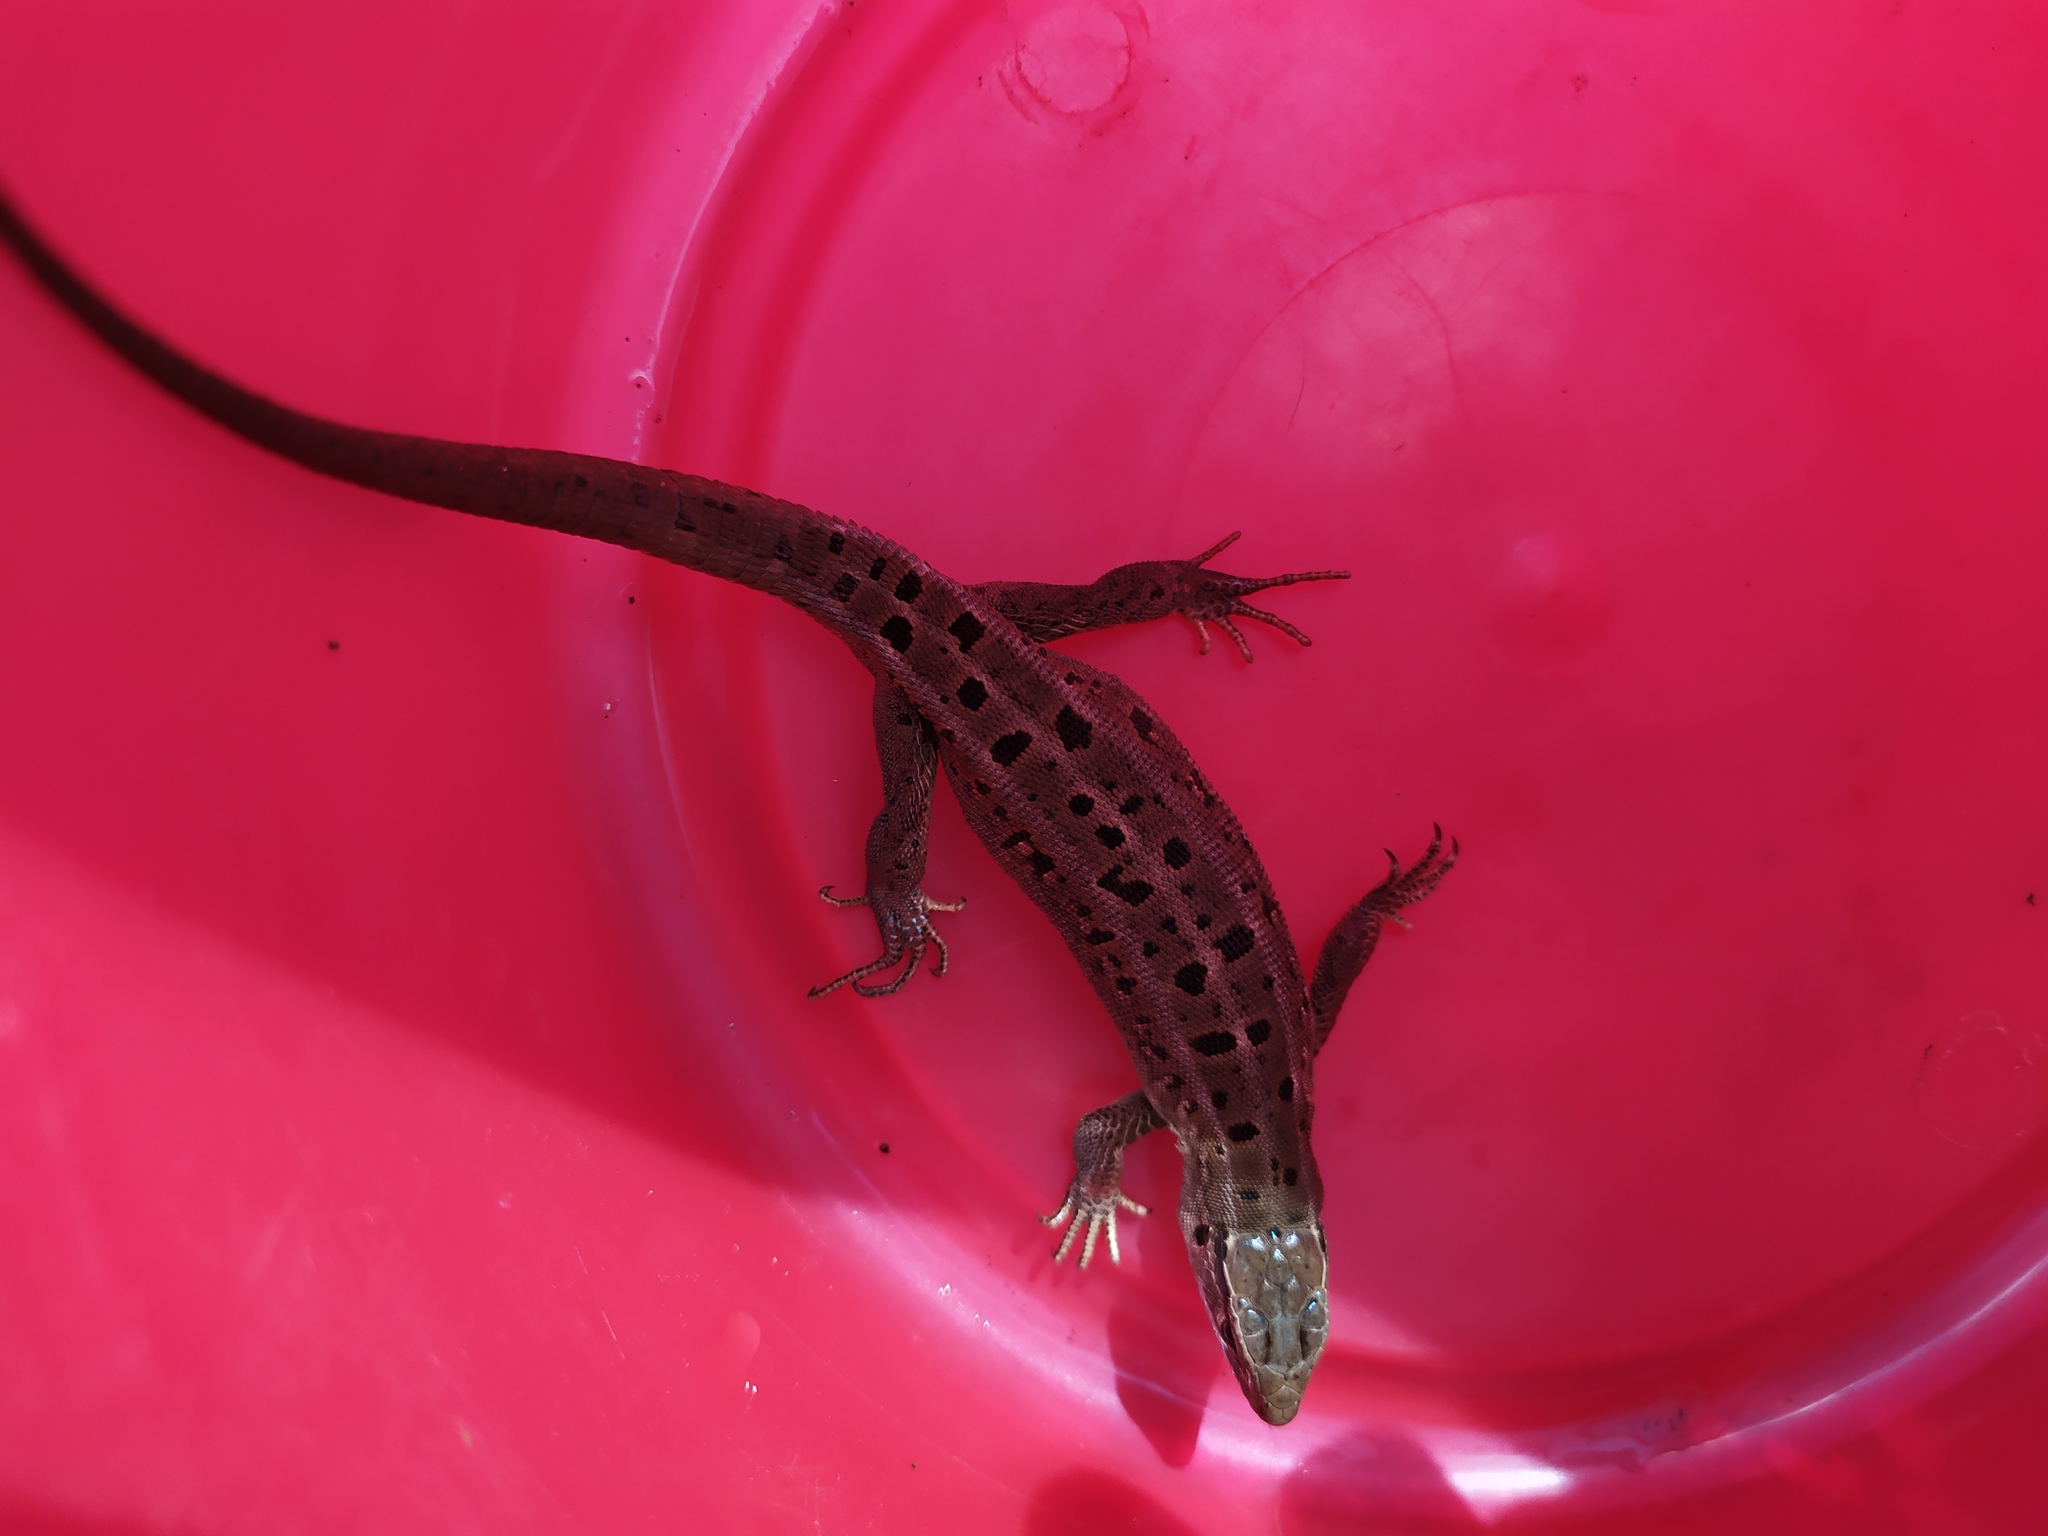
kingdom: Animalia
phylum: Chordata
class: Squamata
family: Lacertidae
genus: Lacerta
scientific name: Lacerta agilis
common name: Sand lizard
